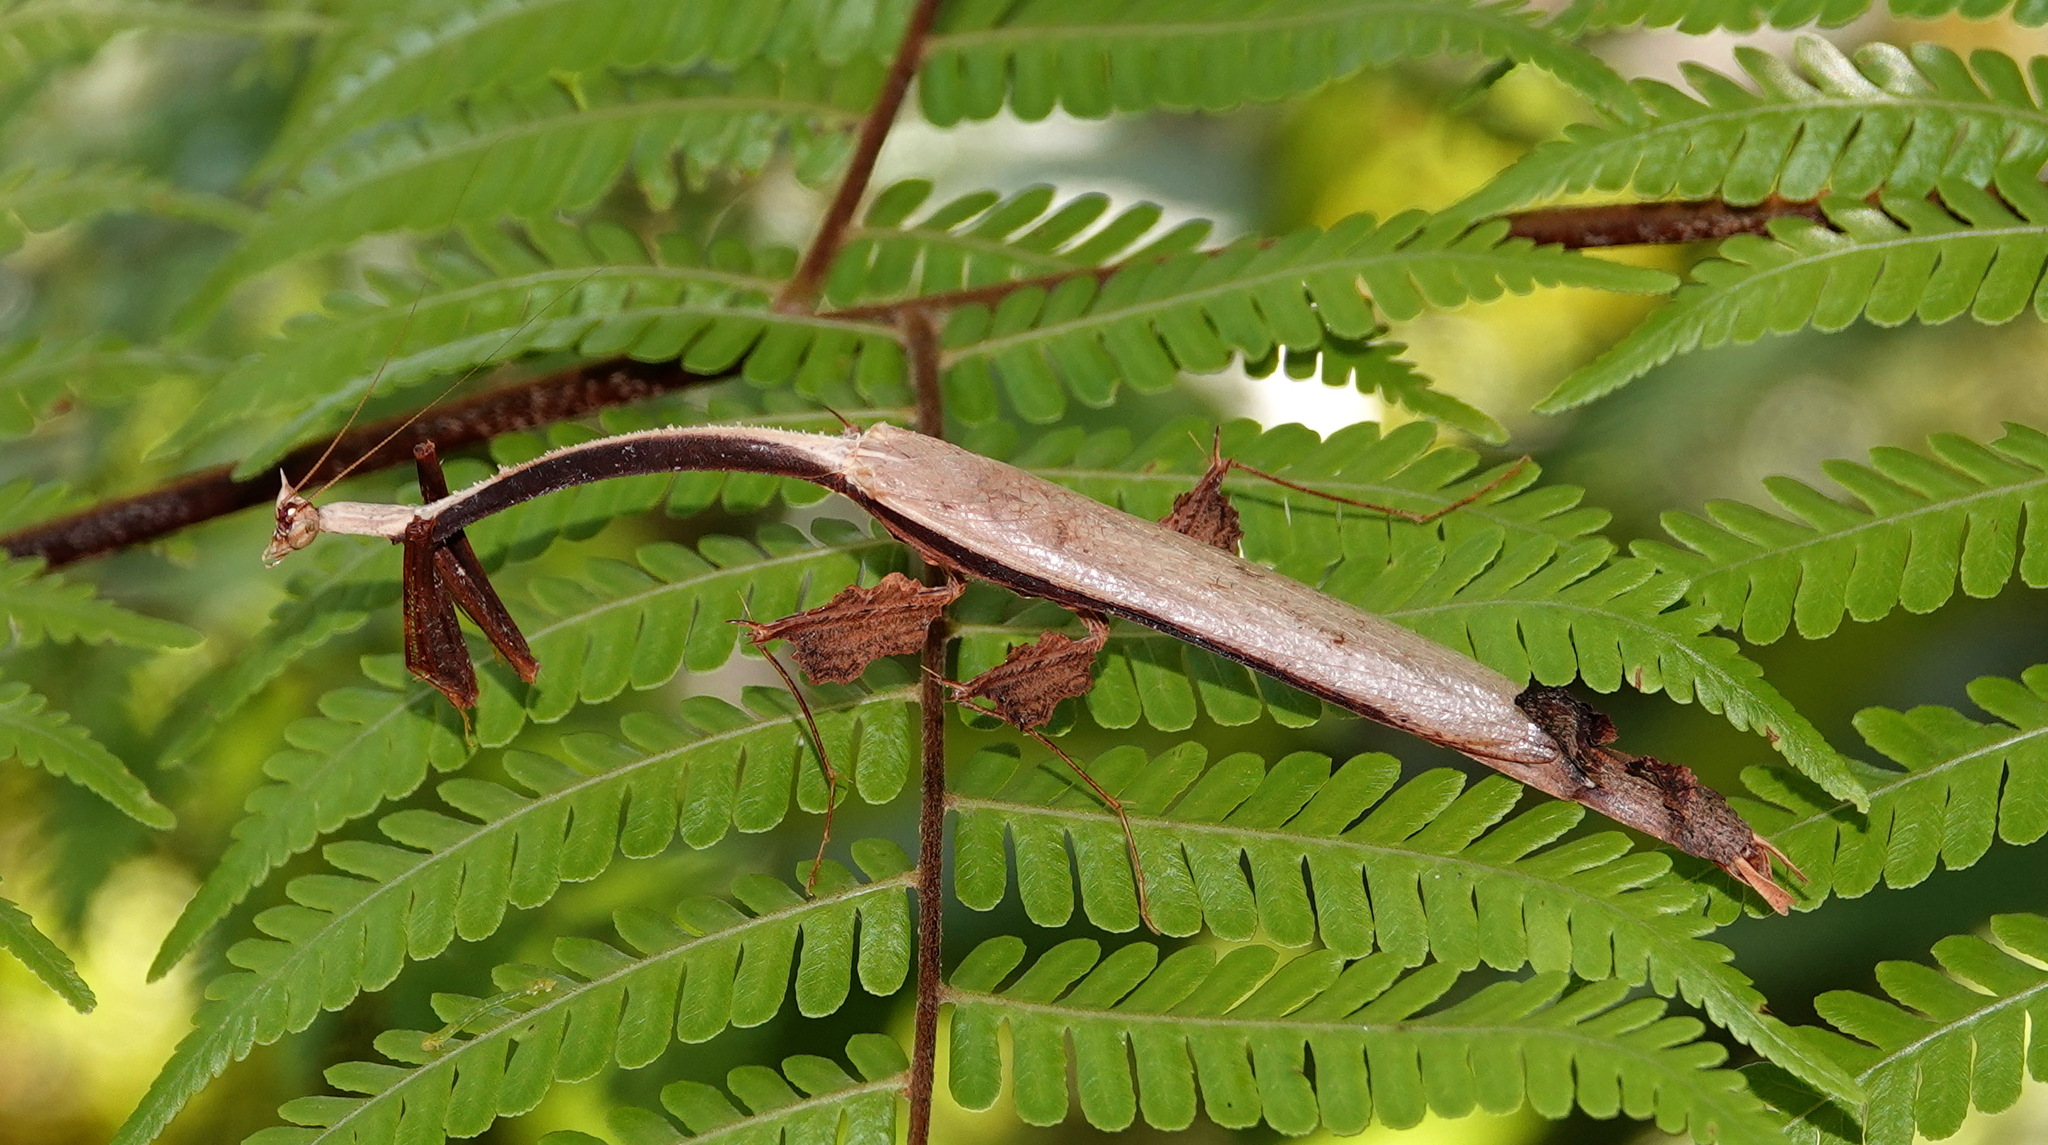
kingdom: Animalia
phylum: Arthropoda
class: Insecta
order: Mantodea
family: Toxoderidae
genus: Toxodera
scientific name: Toxodera fimbriata
